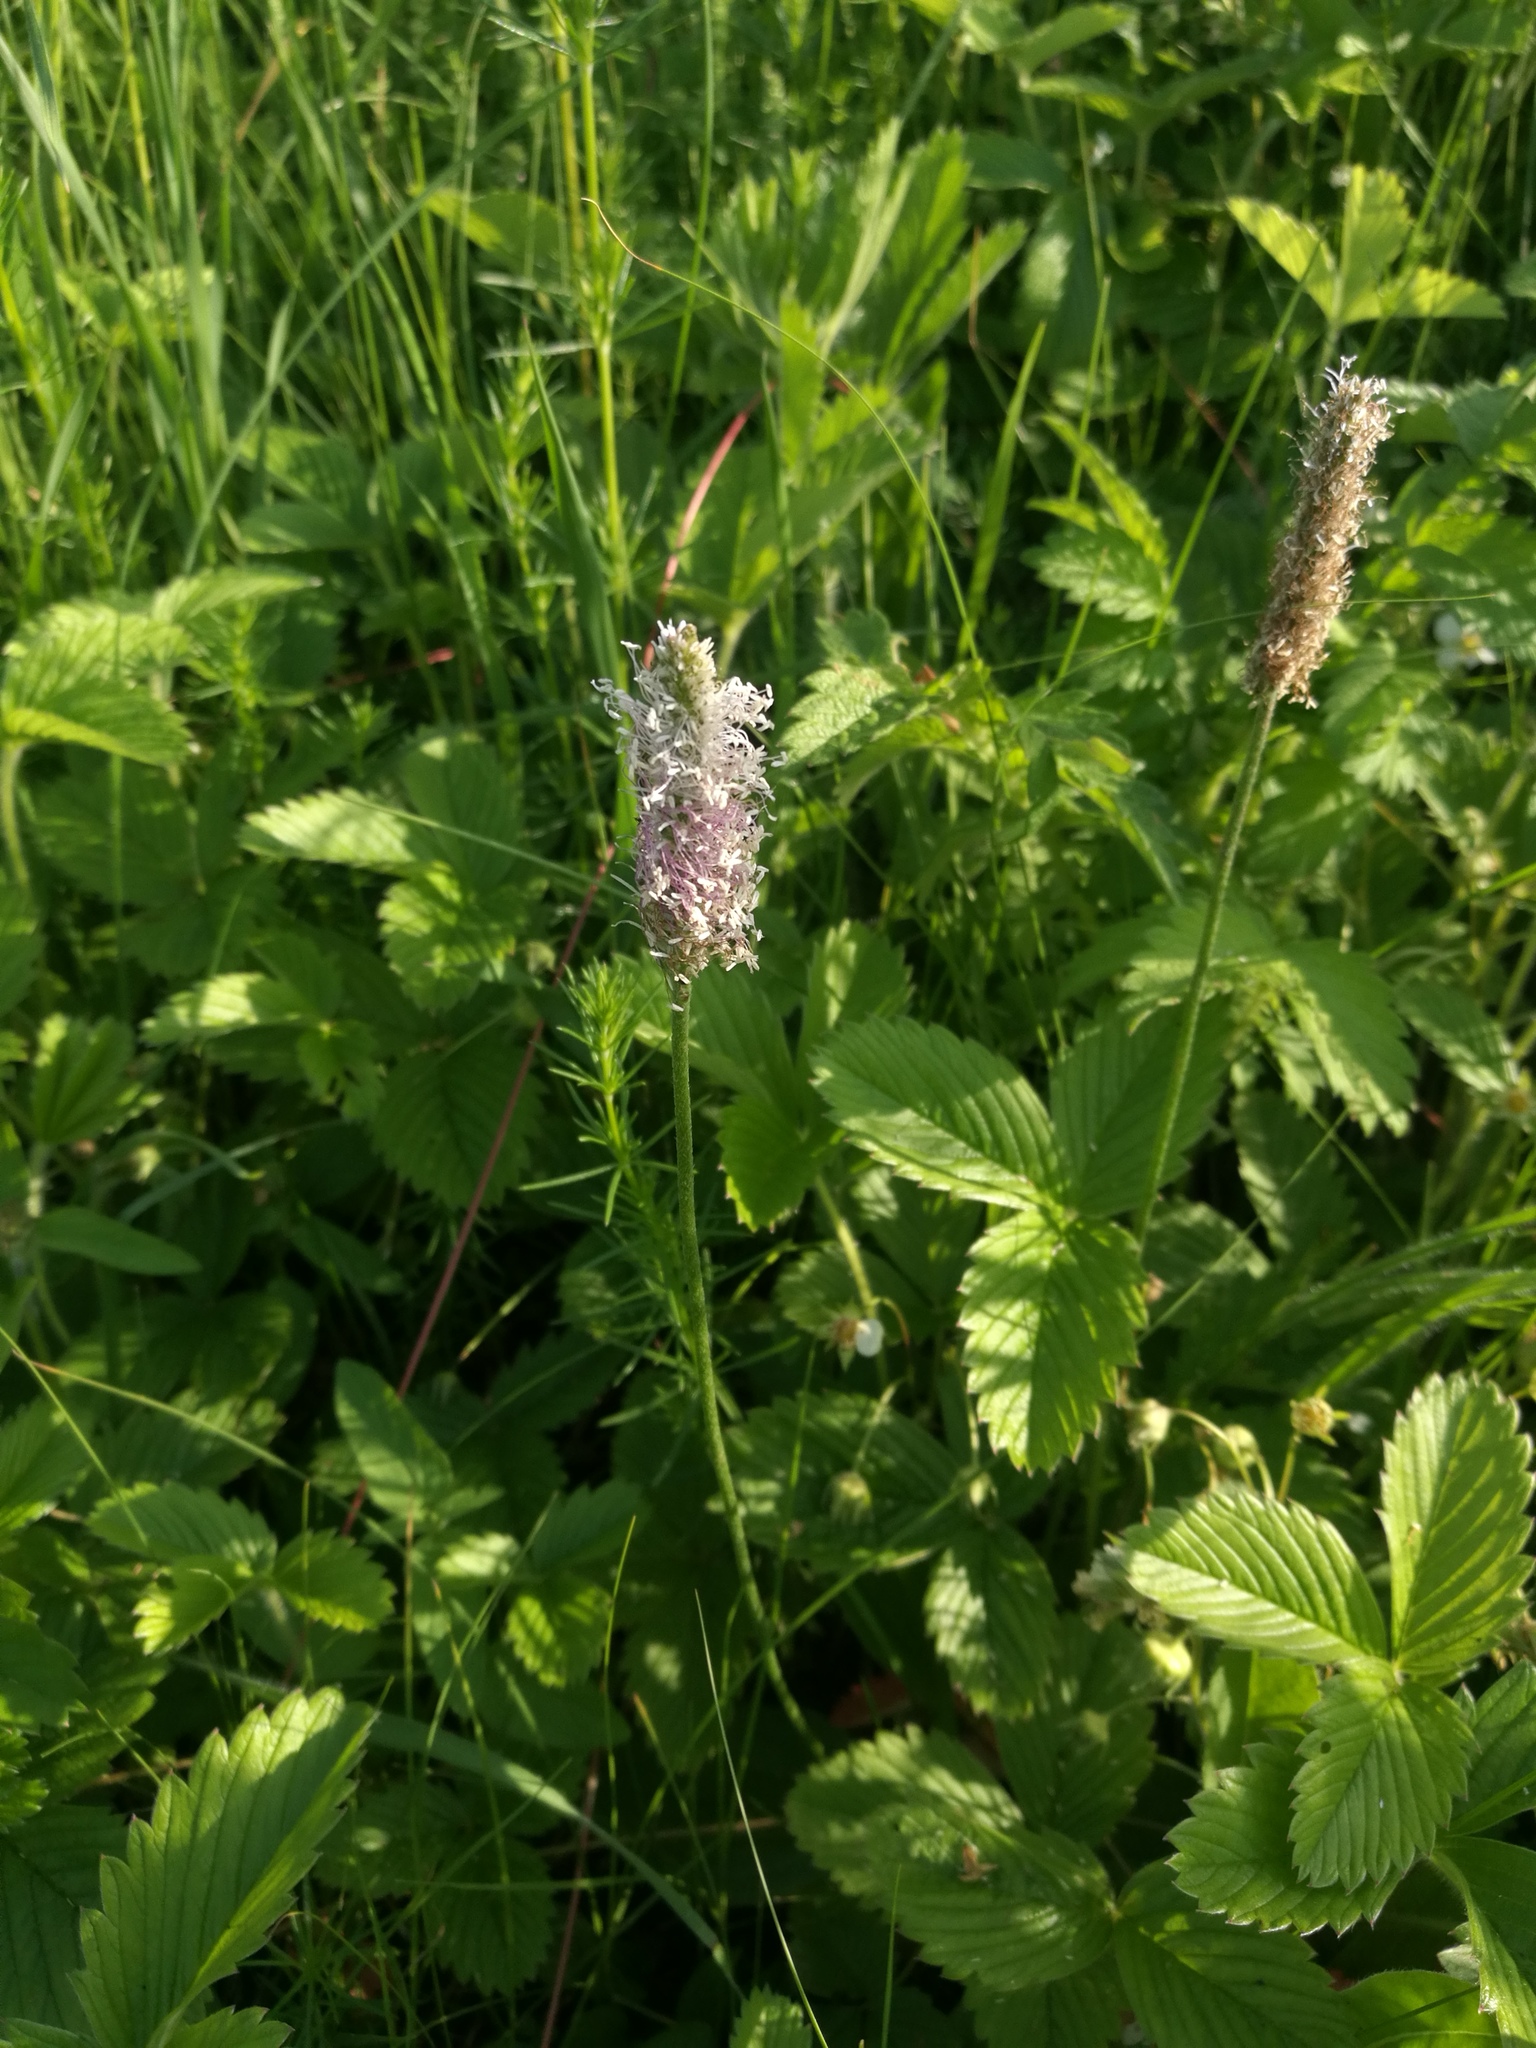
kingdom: Plantae
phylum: Tracheophyta
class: Magnoliopsida
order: Lamiales
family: Plantaginaceae
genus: Plantago
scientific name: Plantago media
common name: Hoary plantain
